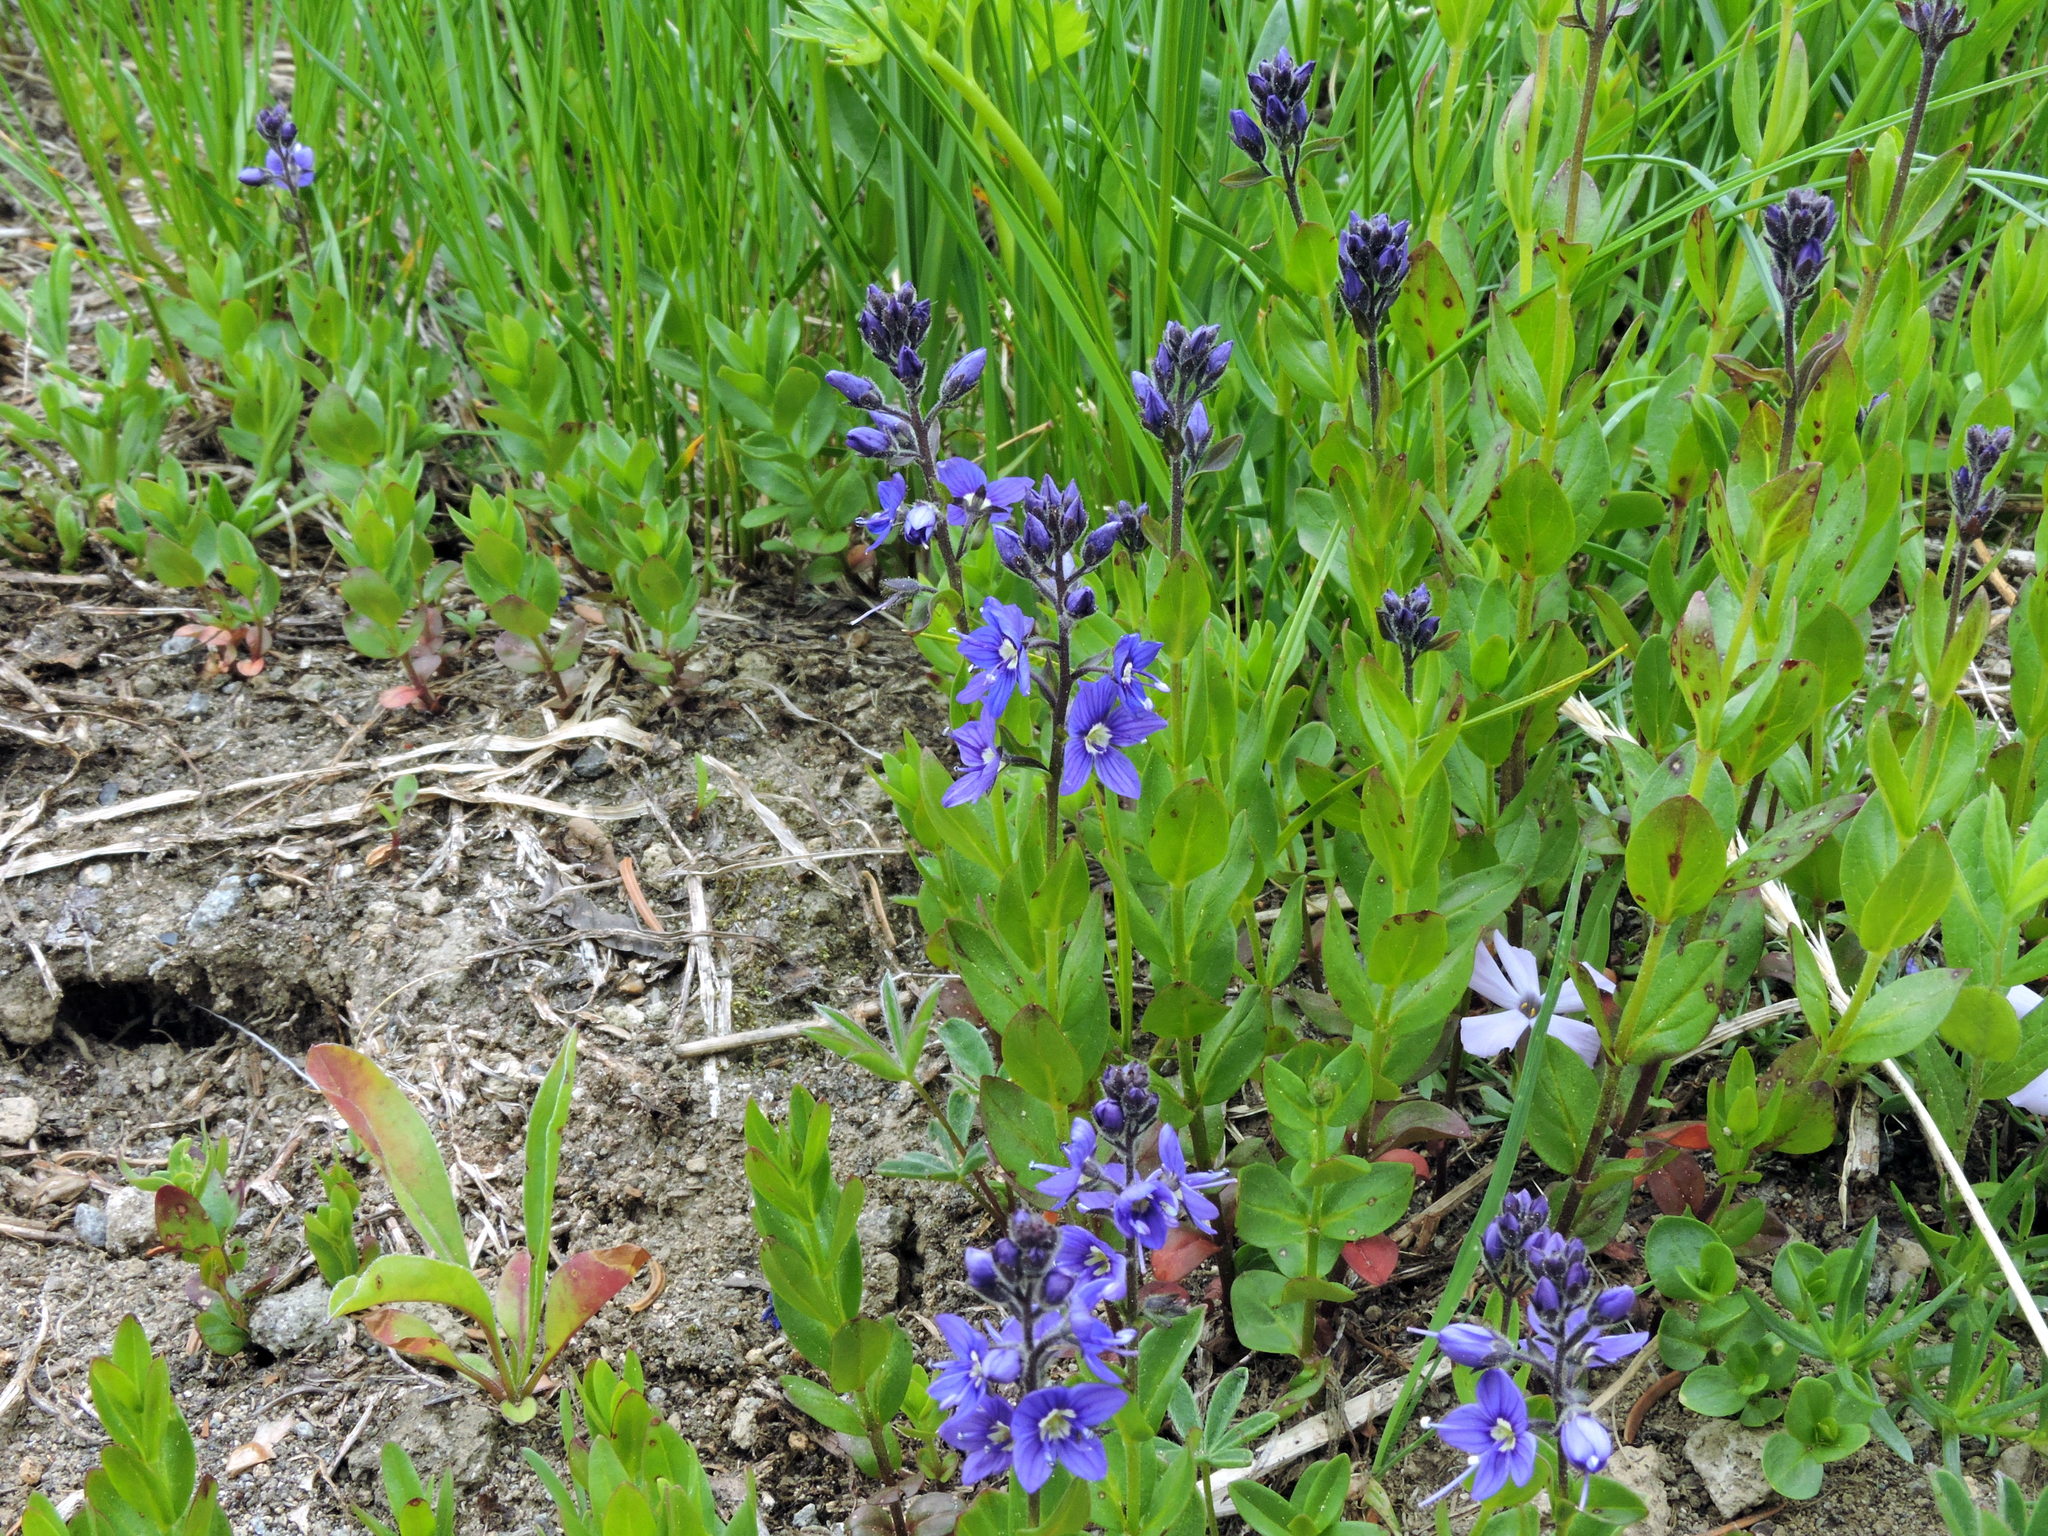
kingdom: Plantae
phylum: Tracheophyta
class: Magnoliopsida
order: Lamiales
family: Plantaginaceae
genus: Veronica
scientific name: Veronica cusickii
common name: Cusick's speedwell
